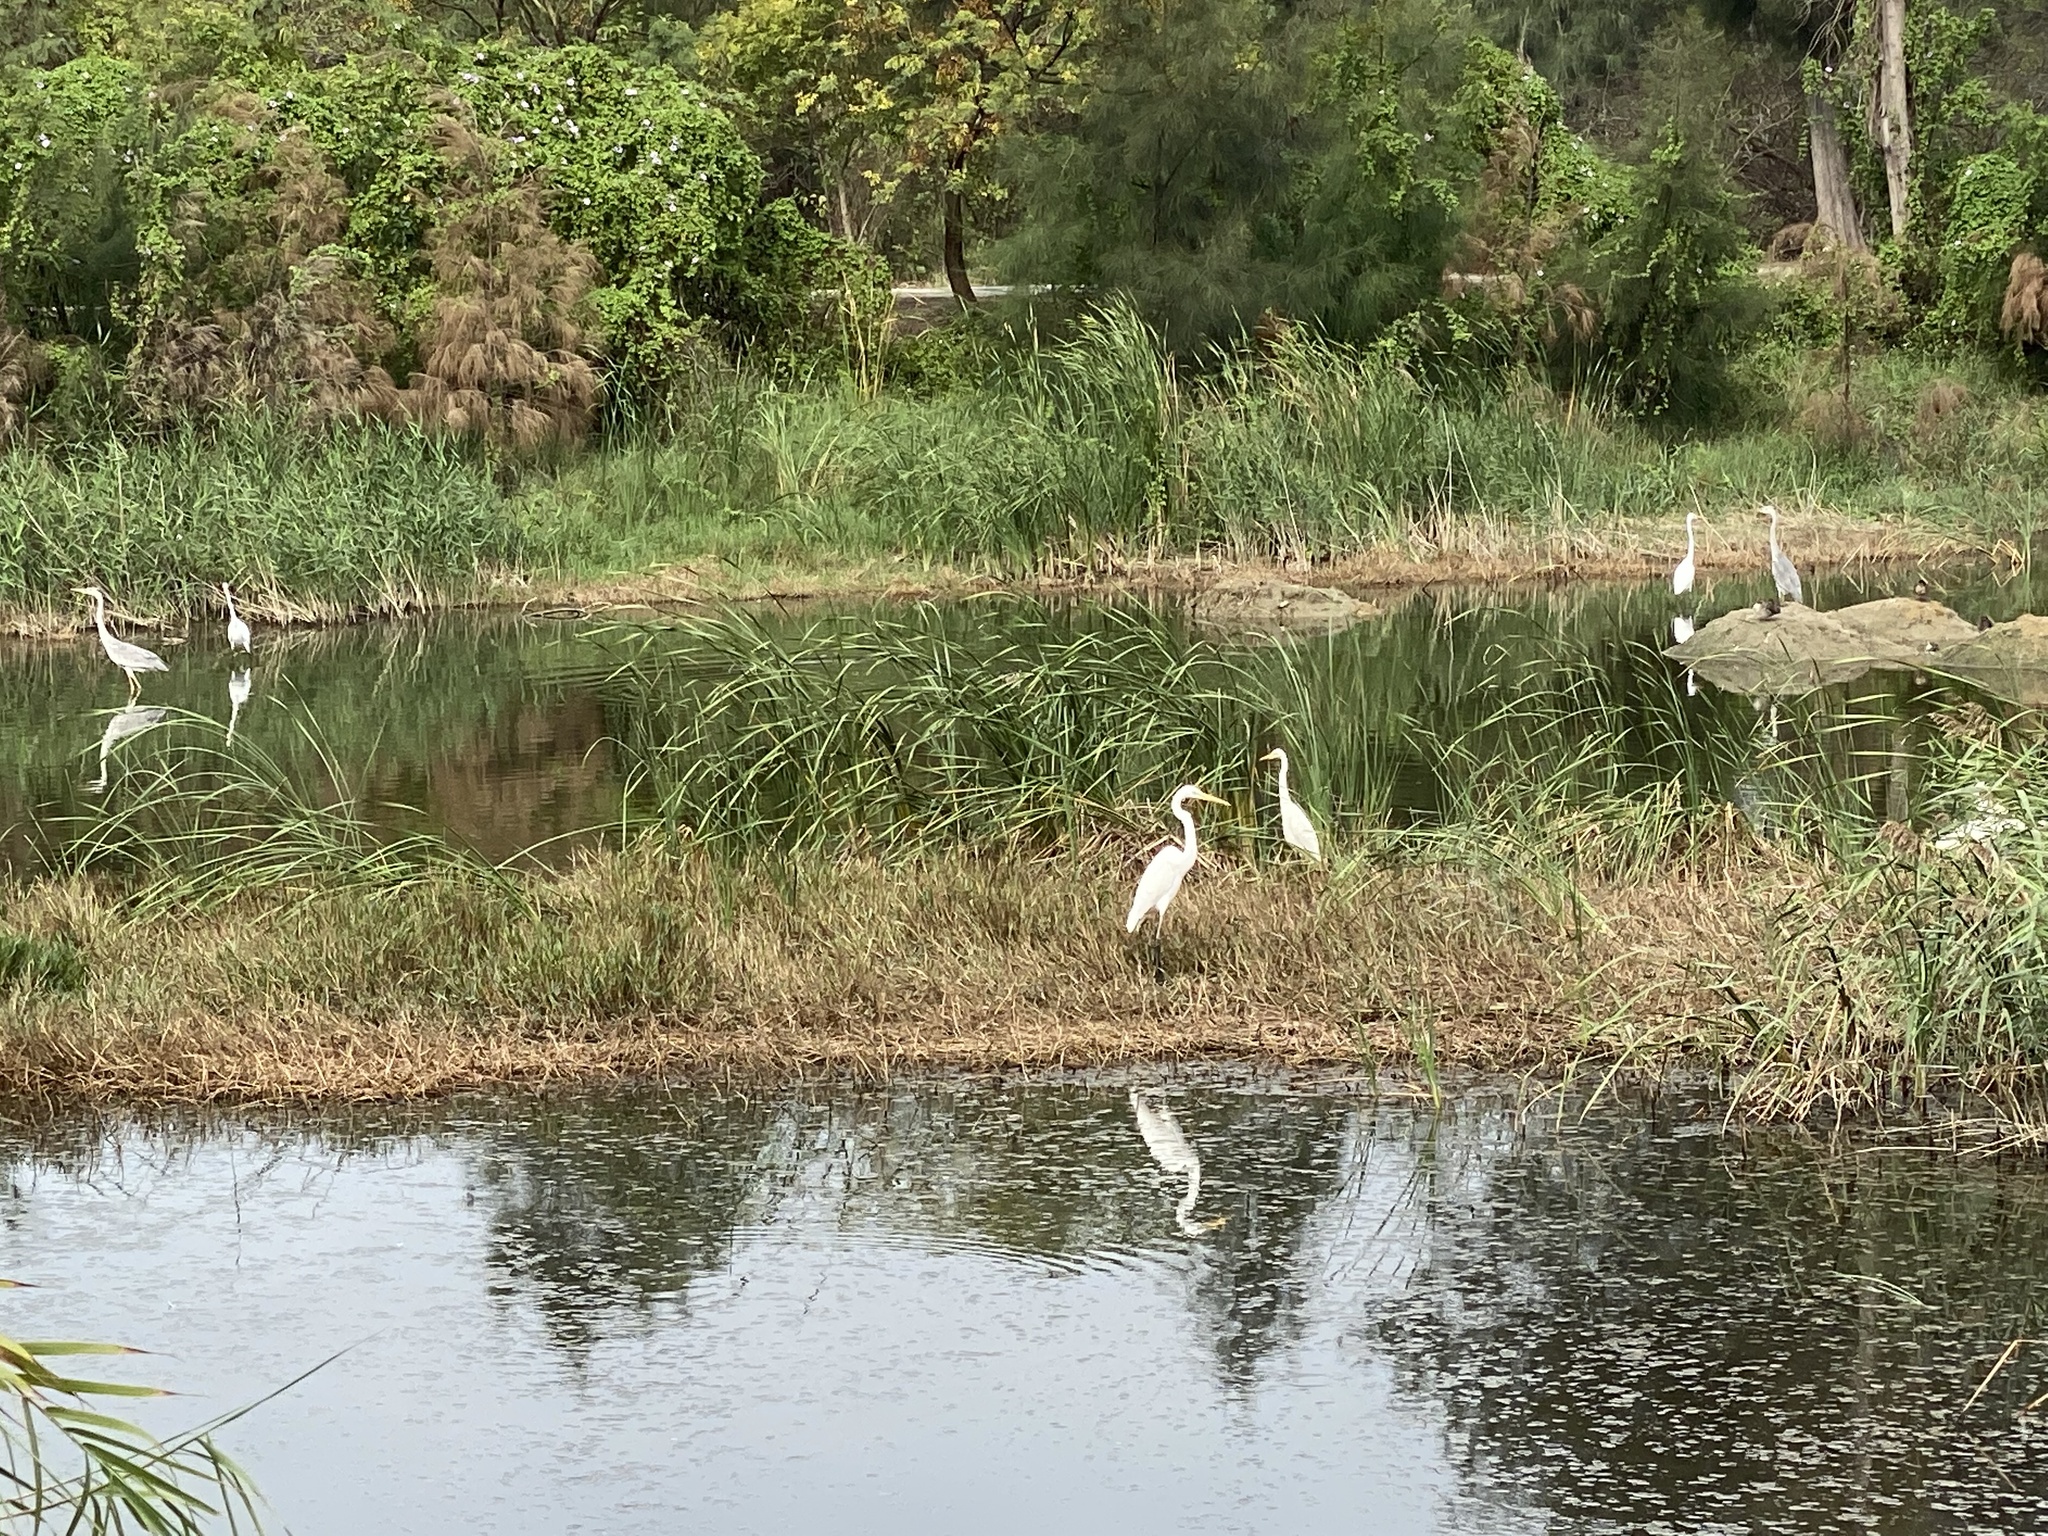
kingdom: Animalia
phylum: Chordata
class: Aves
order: Pelecaniformes
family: Ardeidae
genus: Ardea
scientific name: Ardea alba
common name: Great egret
